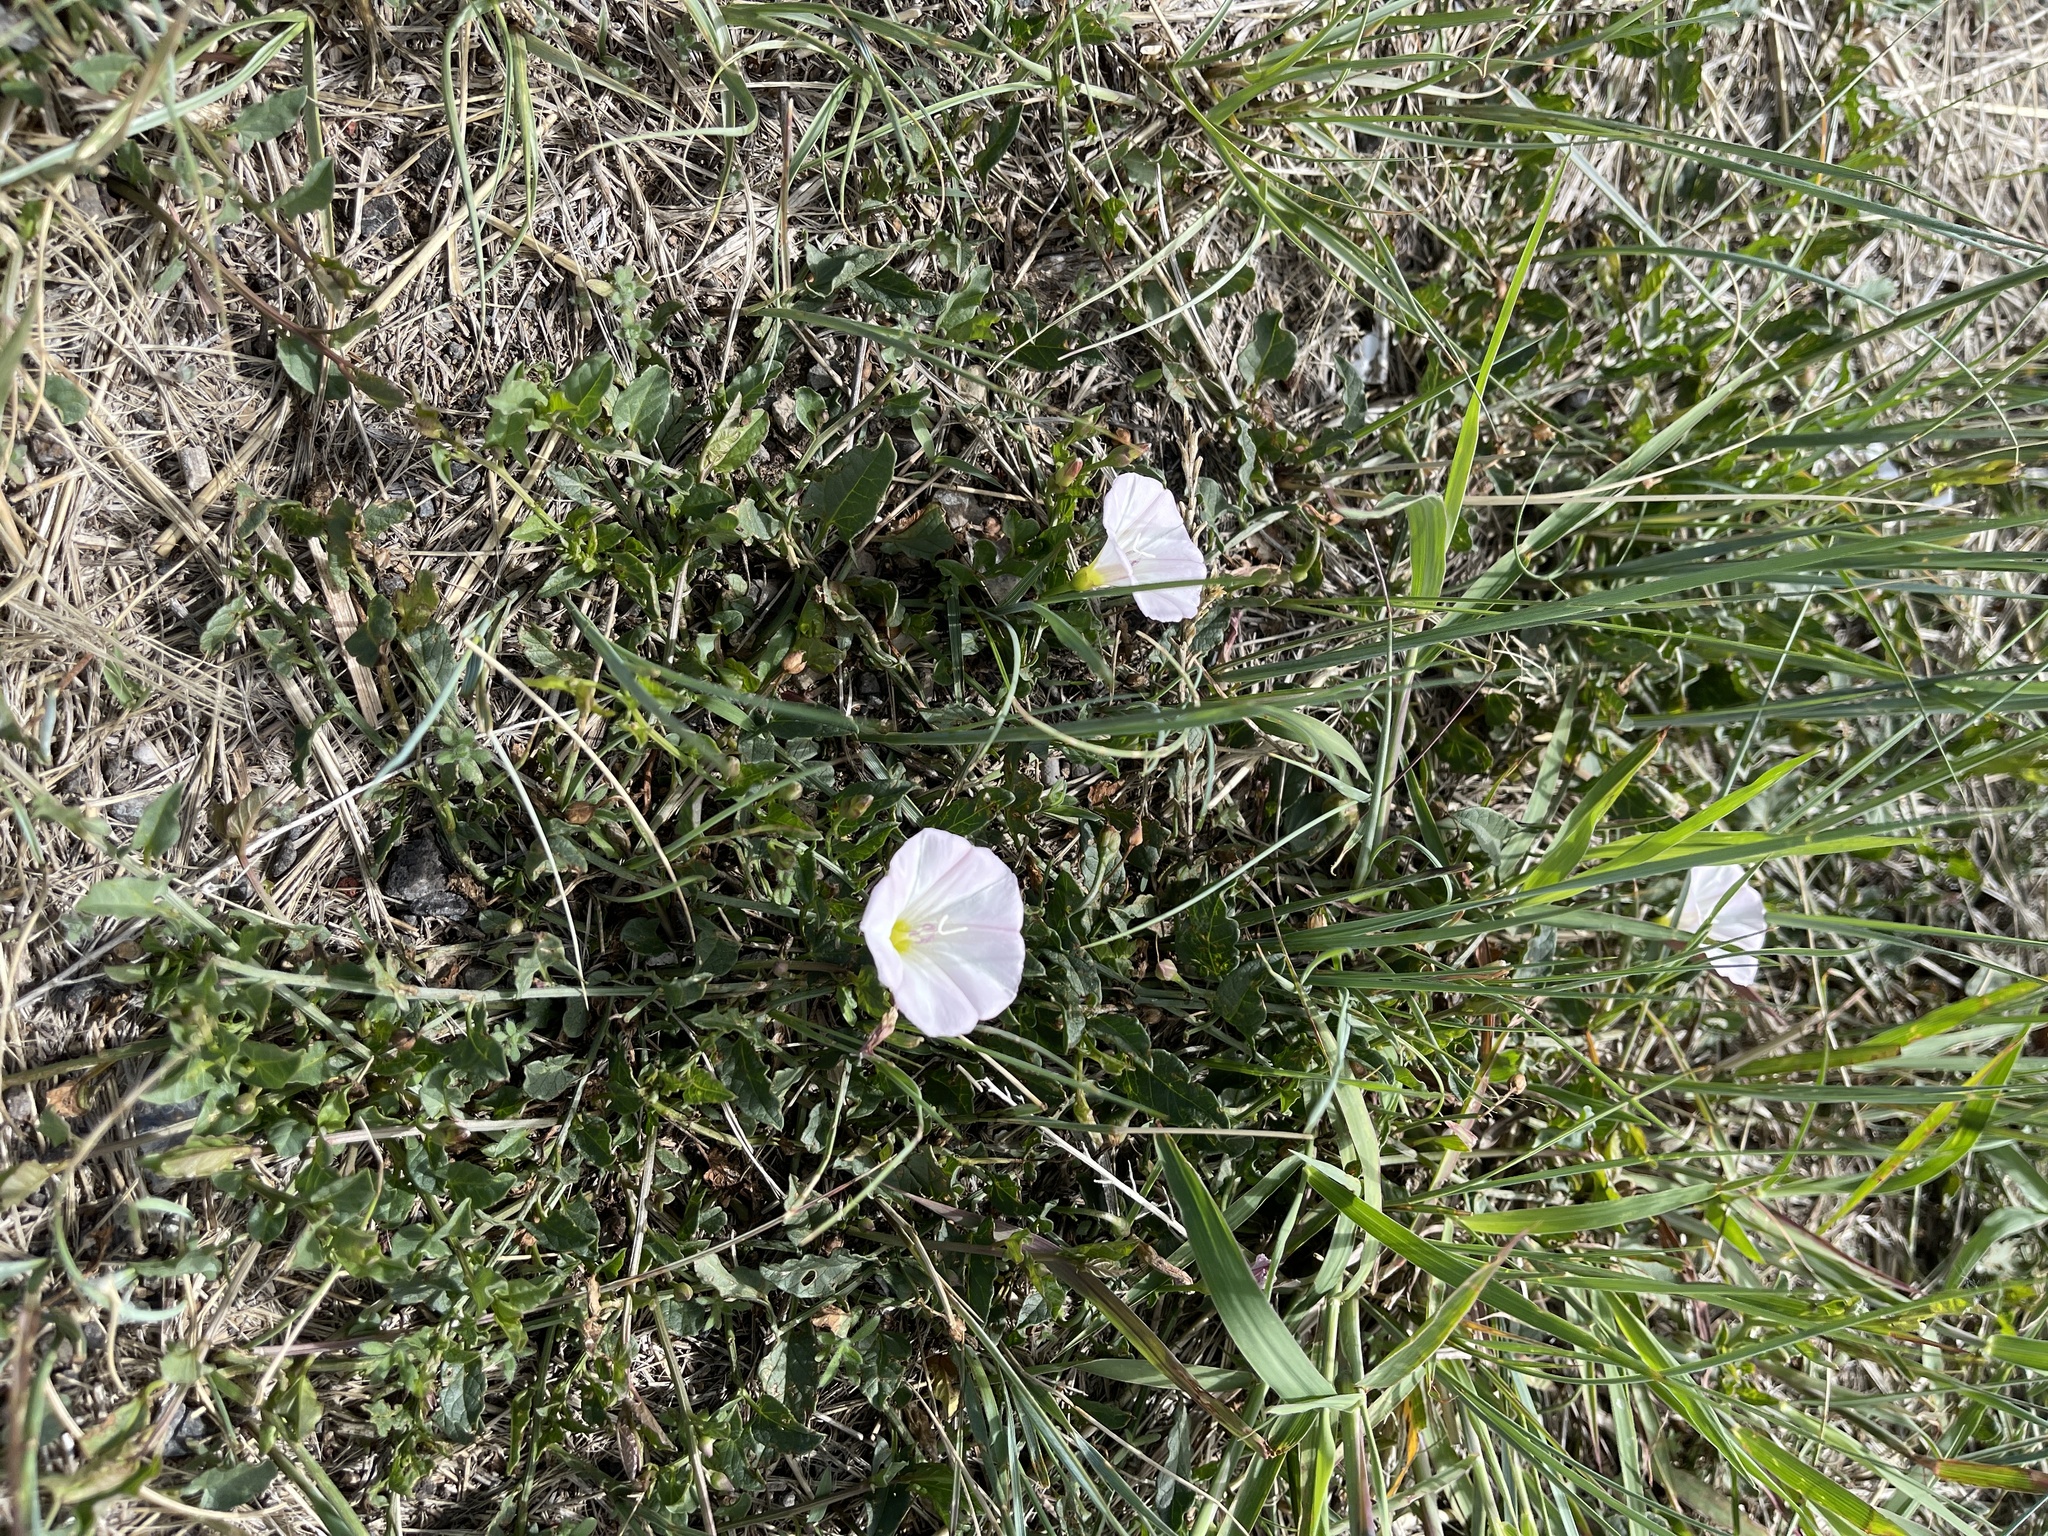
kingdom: Plantae
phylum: Tracheophyta
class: Magnoliopsida
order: Solanales
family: Convolvulaceae
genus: Convolvulus
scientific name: Convolvulus arvensis
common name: Field bindweed
